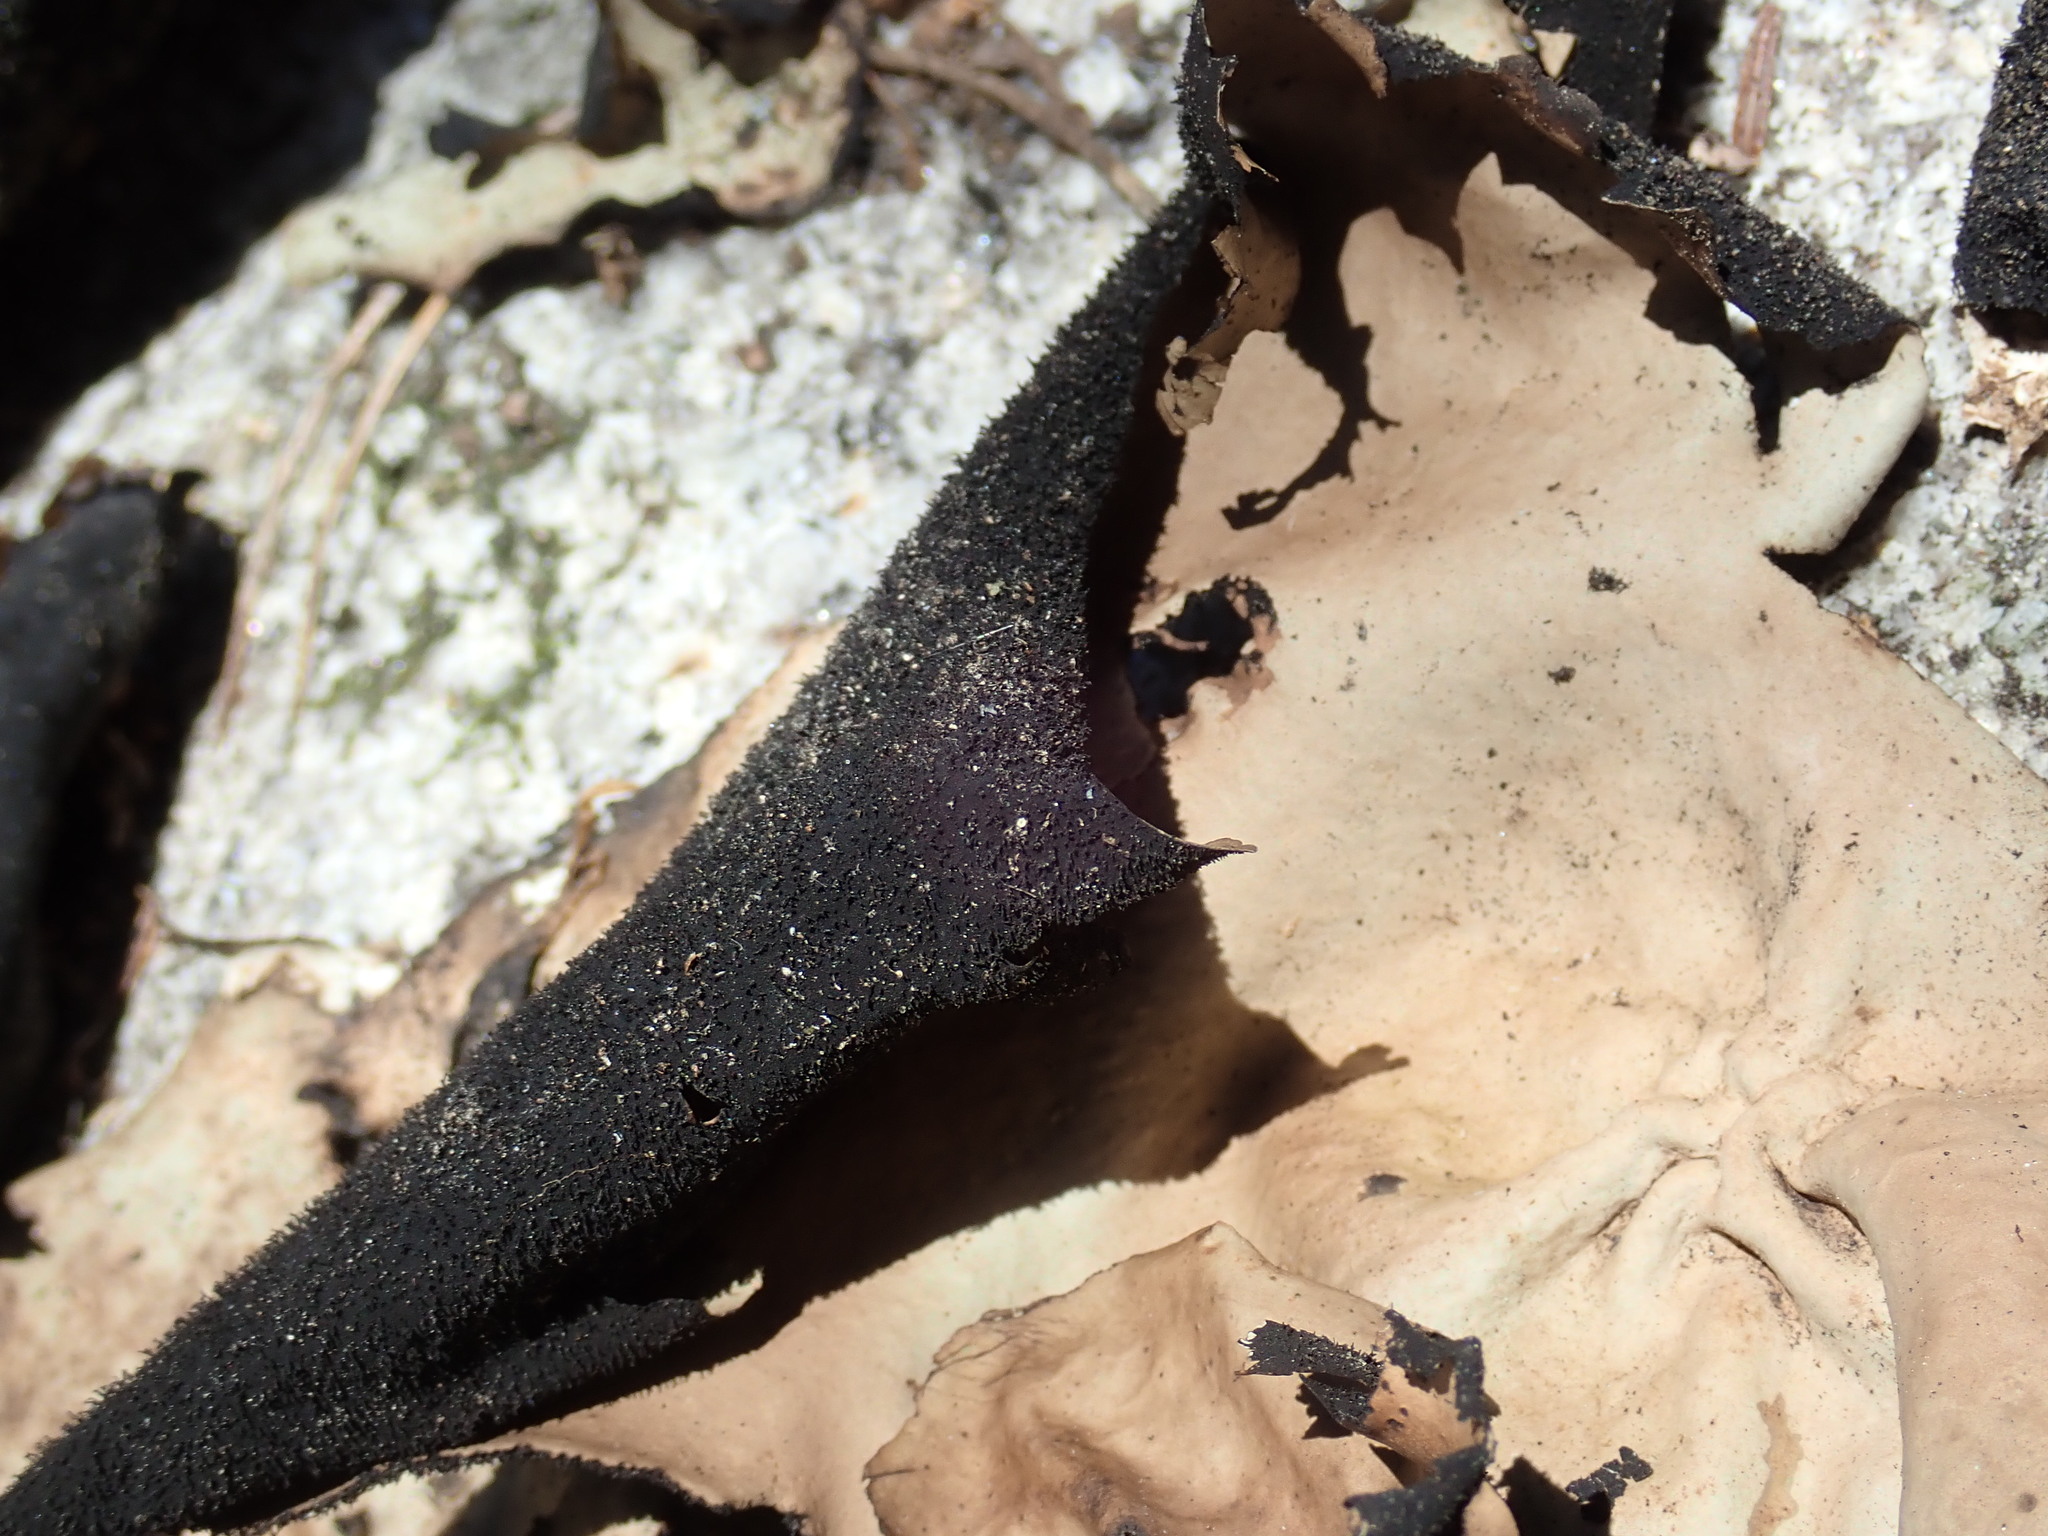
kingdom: Fungi
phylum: Ascomycota
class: Lecanoromycetes
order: Umbilicariales
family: Umbilicariaceae
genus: Umbilicaria
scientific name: Umbilicaria mammulata
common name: Smooth rock tripe
